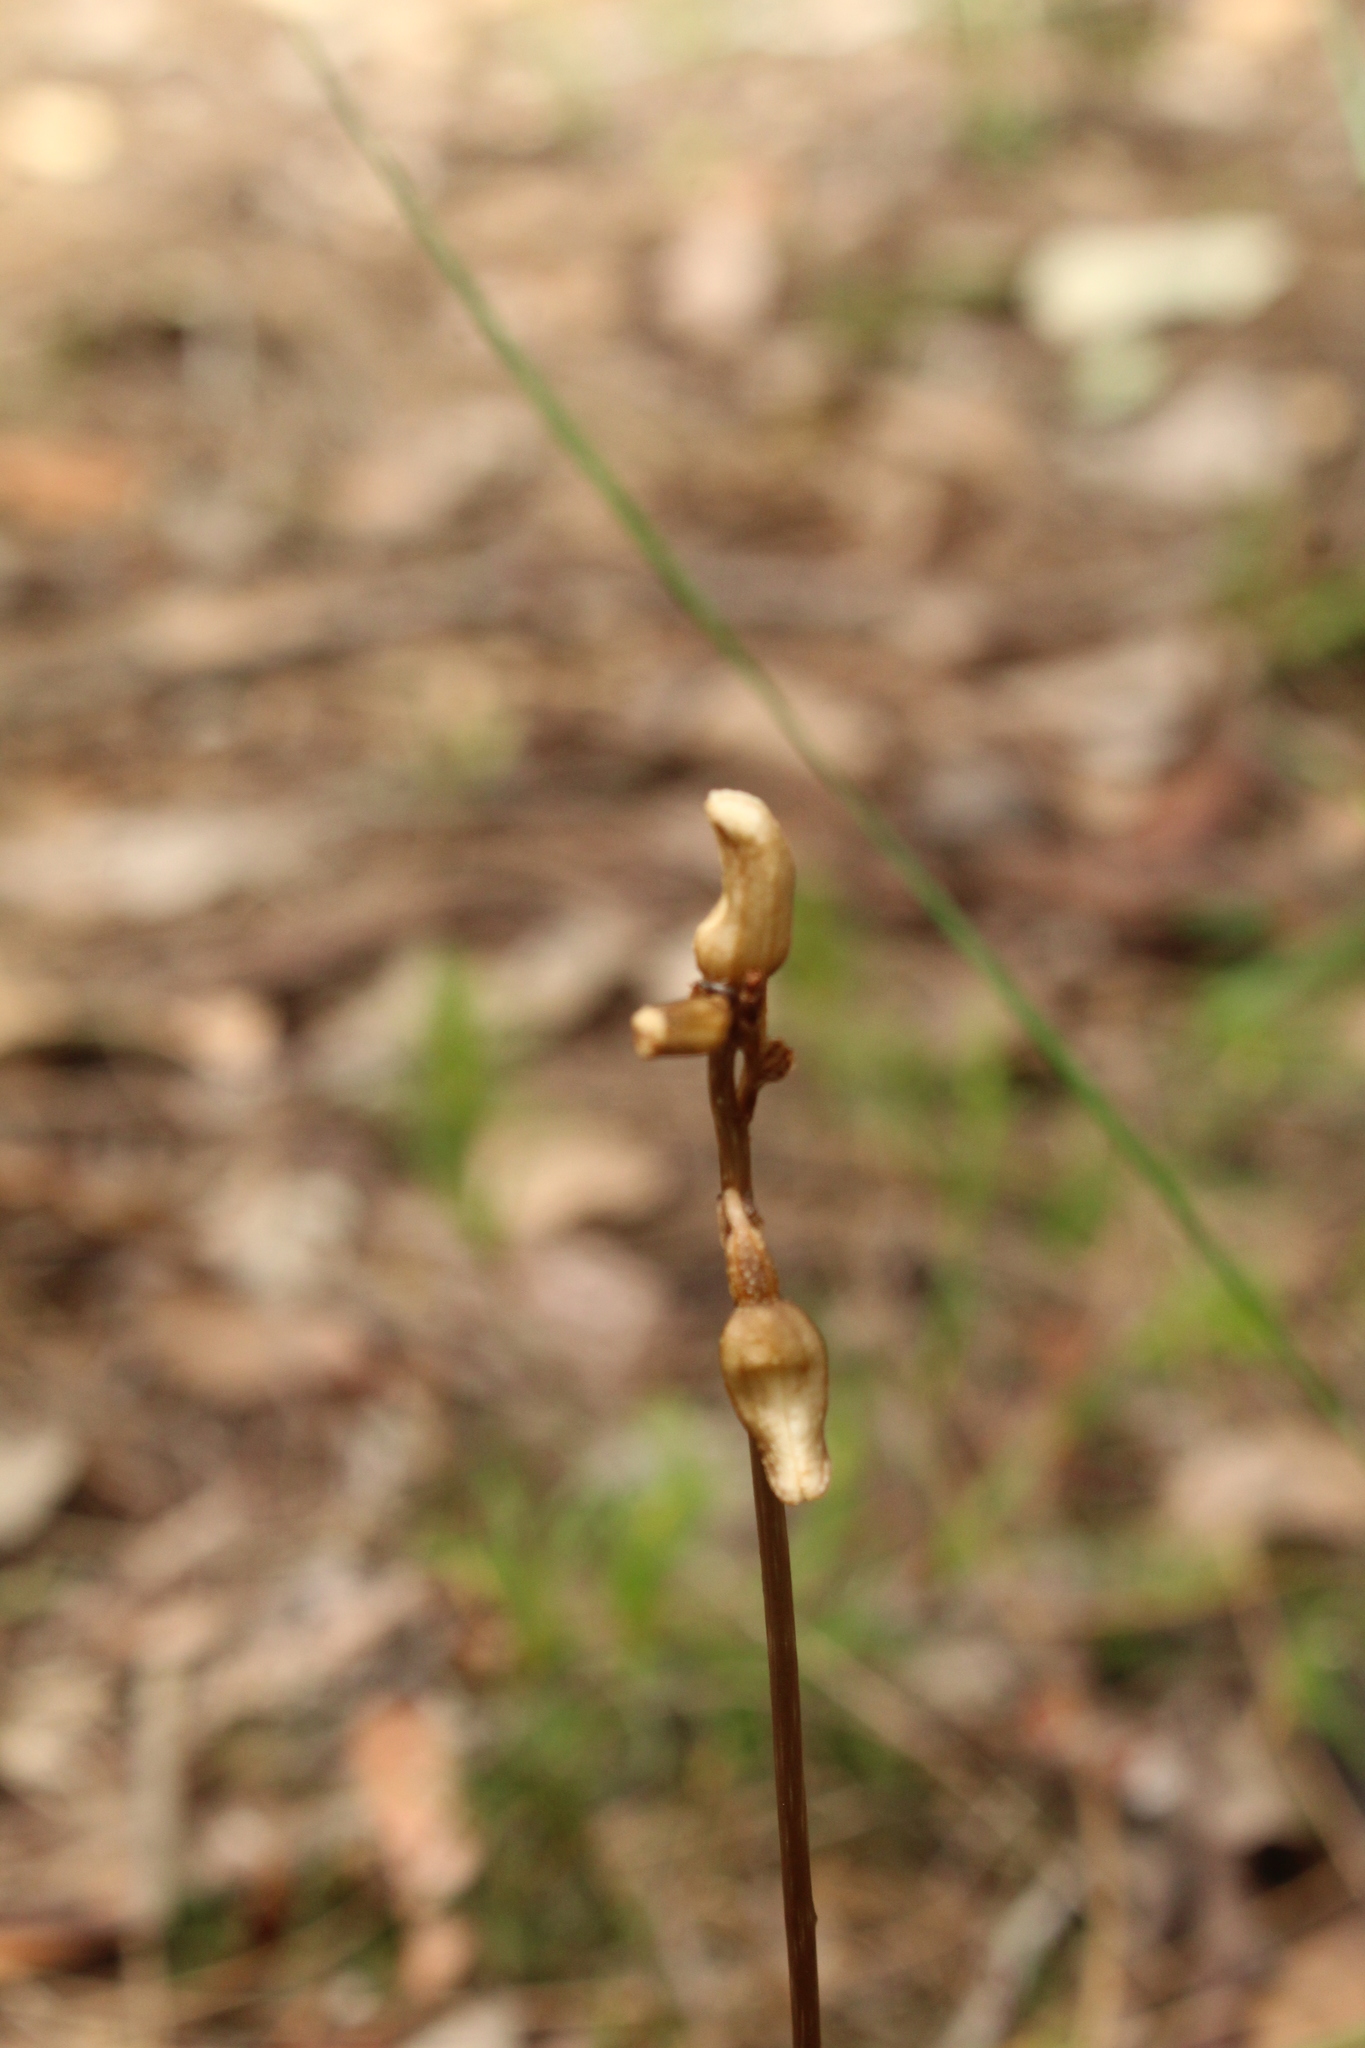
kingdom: Plantae
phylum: Tracheophyta
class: Liliopsida
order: Asparagales
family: Orchidaceae
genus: Gastrodia
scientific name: Gastrodia lacista
